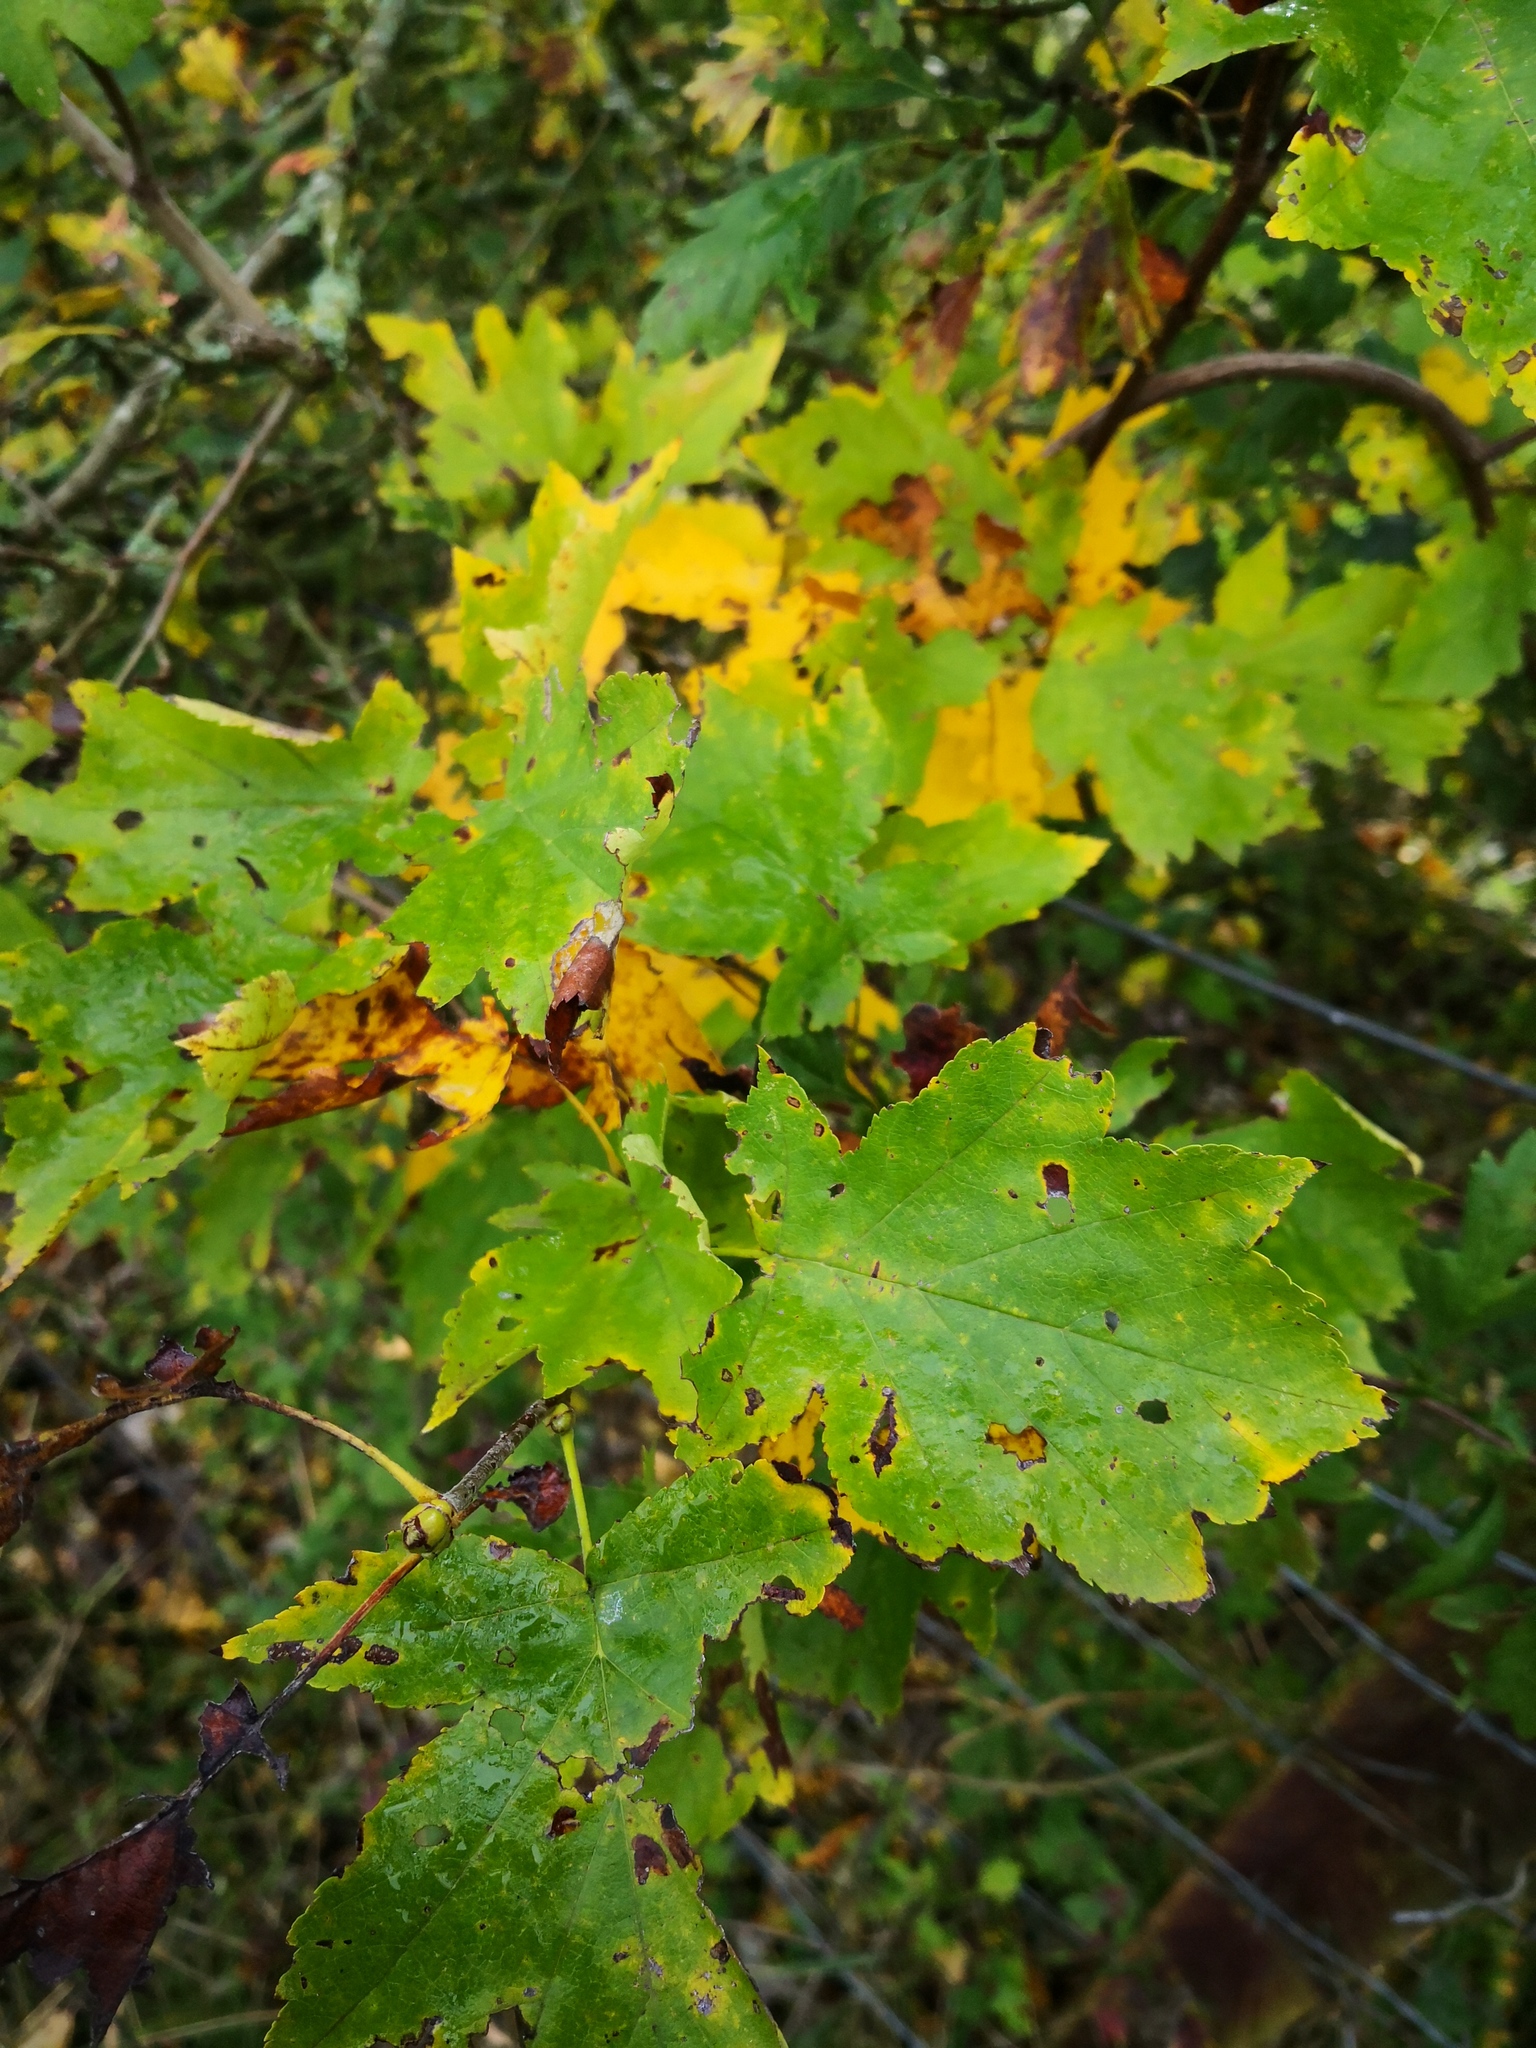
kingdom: Plantae
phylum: Tracheophyta
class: Magnoliopsida
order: Rosales
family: Rosaceae
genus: Torminalis
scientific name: Torminalis glaberrima
